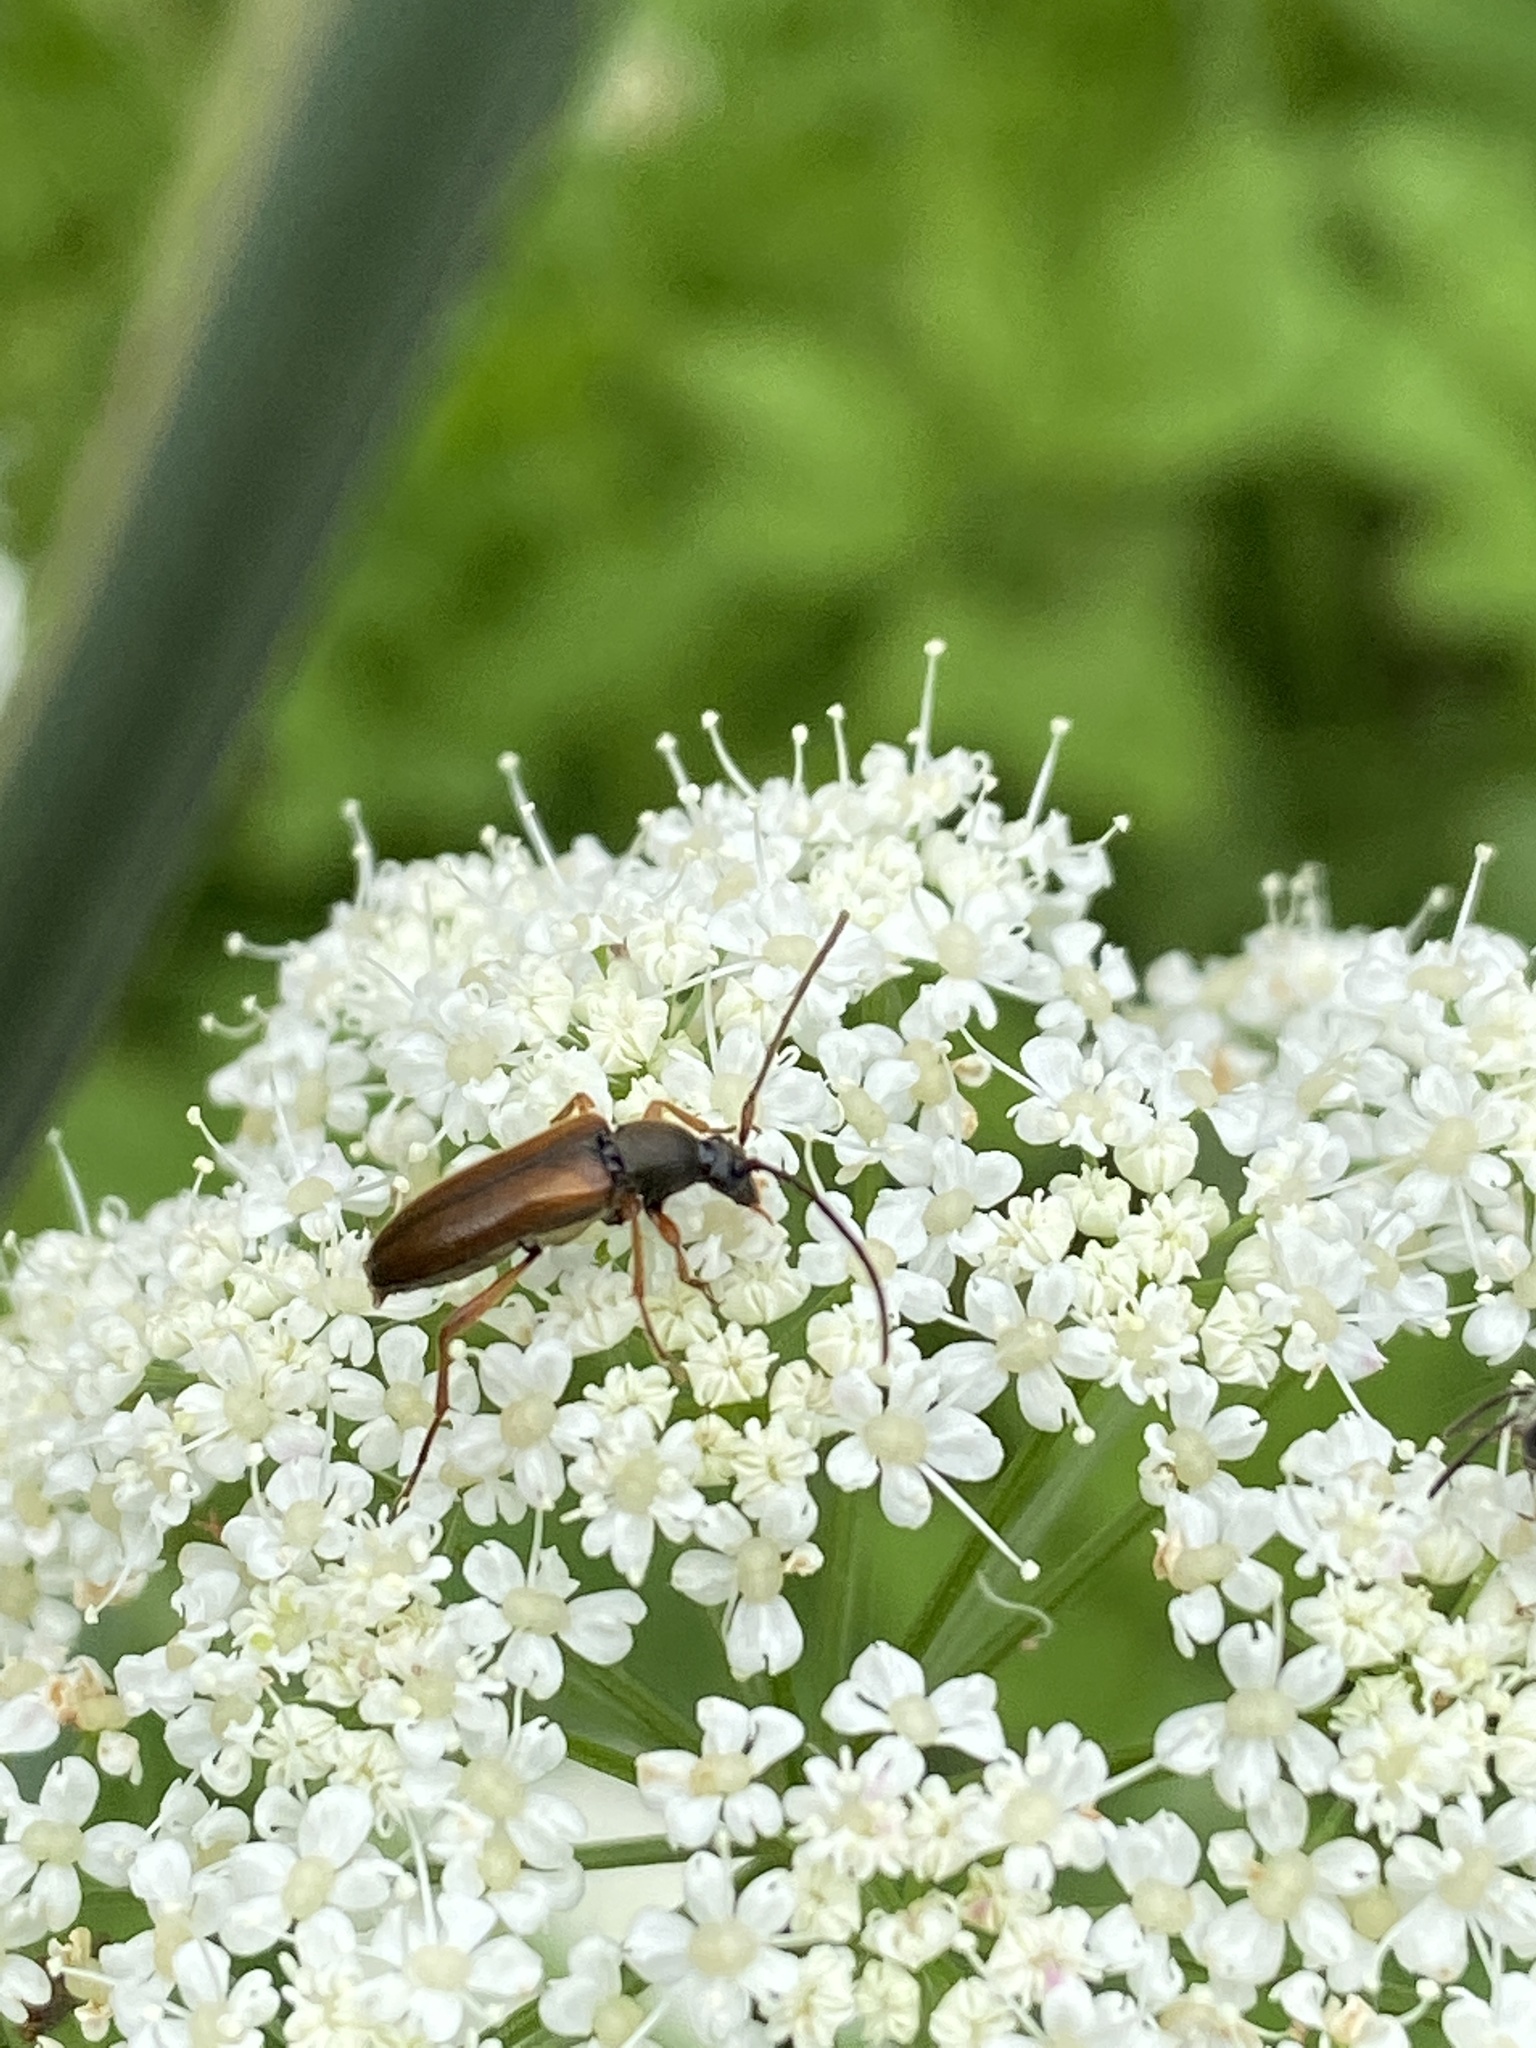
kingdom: Animalia
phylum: Arthropoda
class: Insecta
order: Coleoptera
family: Cerambycidae
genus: Alosterna
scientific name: Alosterna tabacicolor
